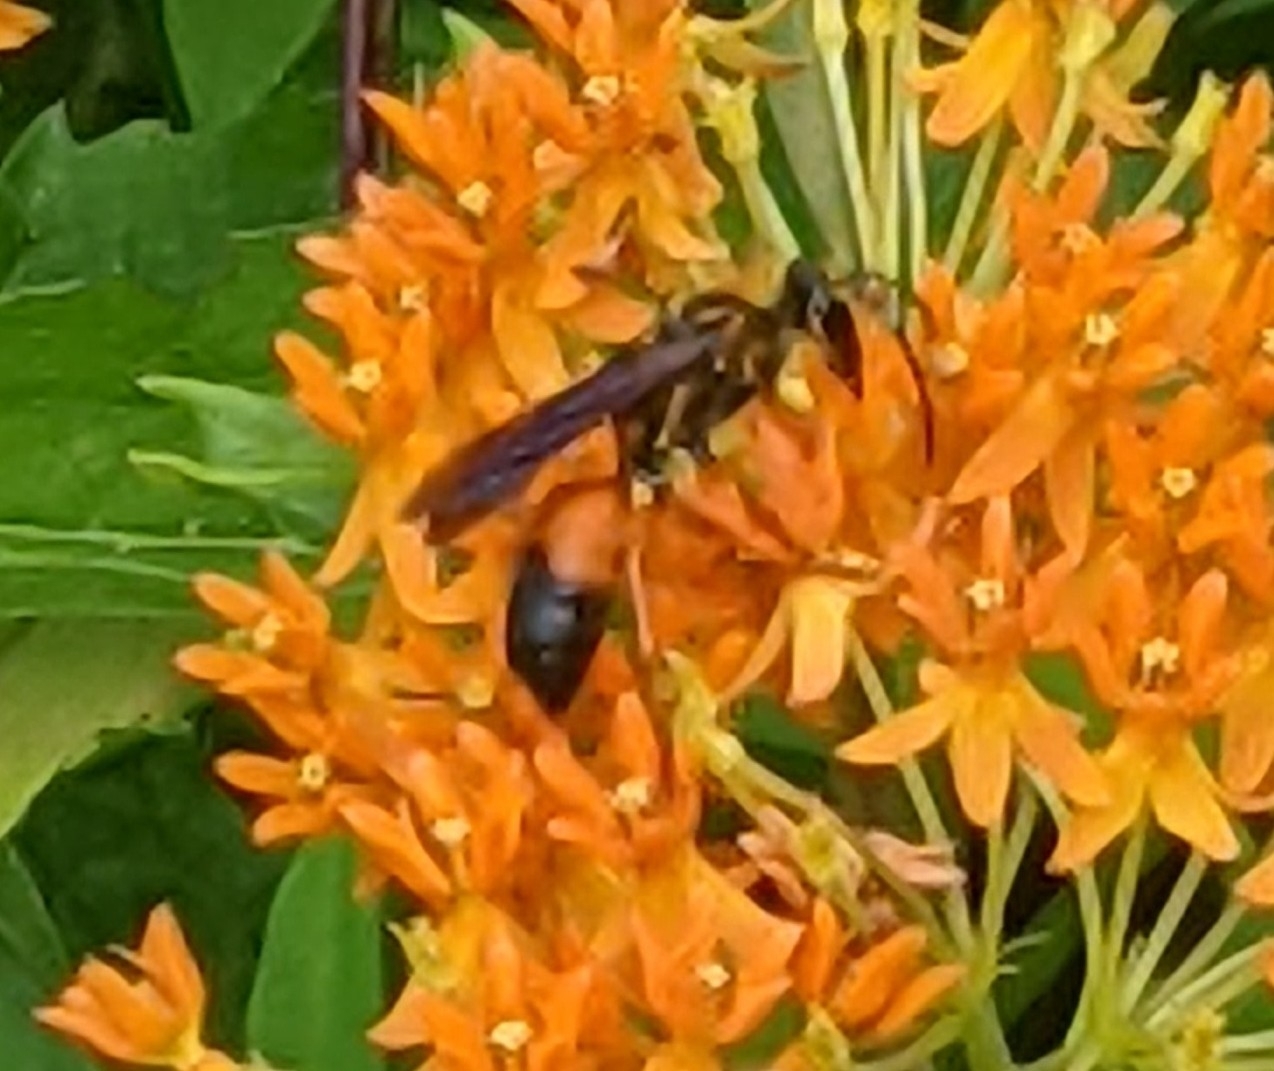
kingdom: Animalia
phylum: Arthropoda
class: Insecta
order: Hymenoptera
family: Sphecidae
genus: Sphex
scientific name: Sphex ichneumoneus
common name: Great golden digger wasp
